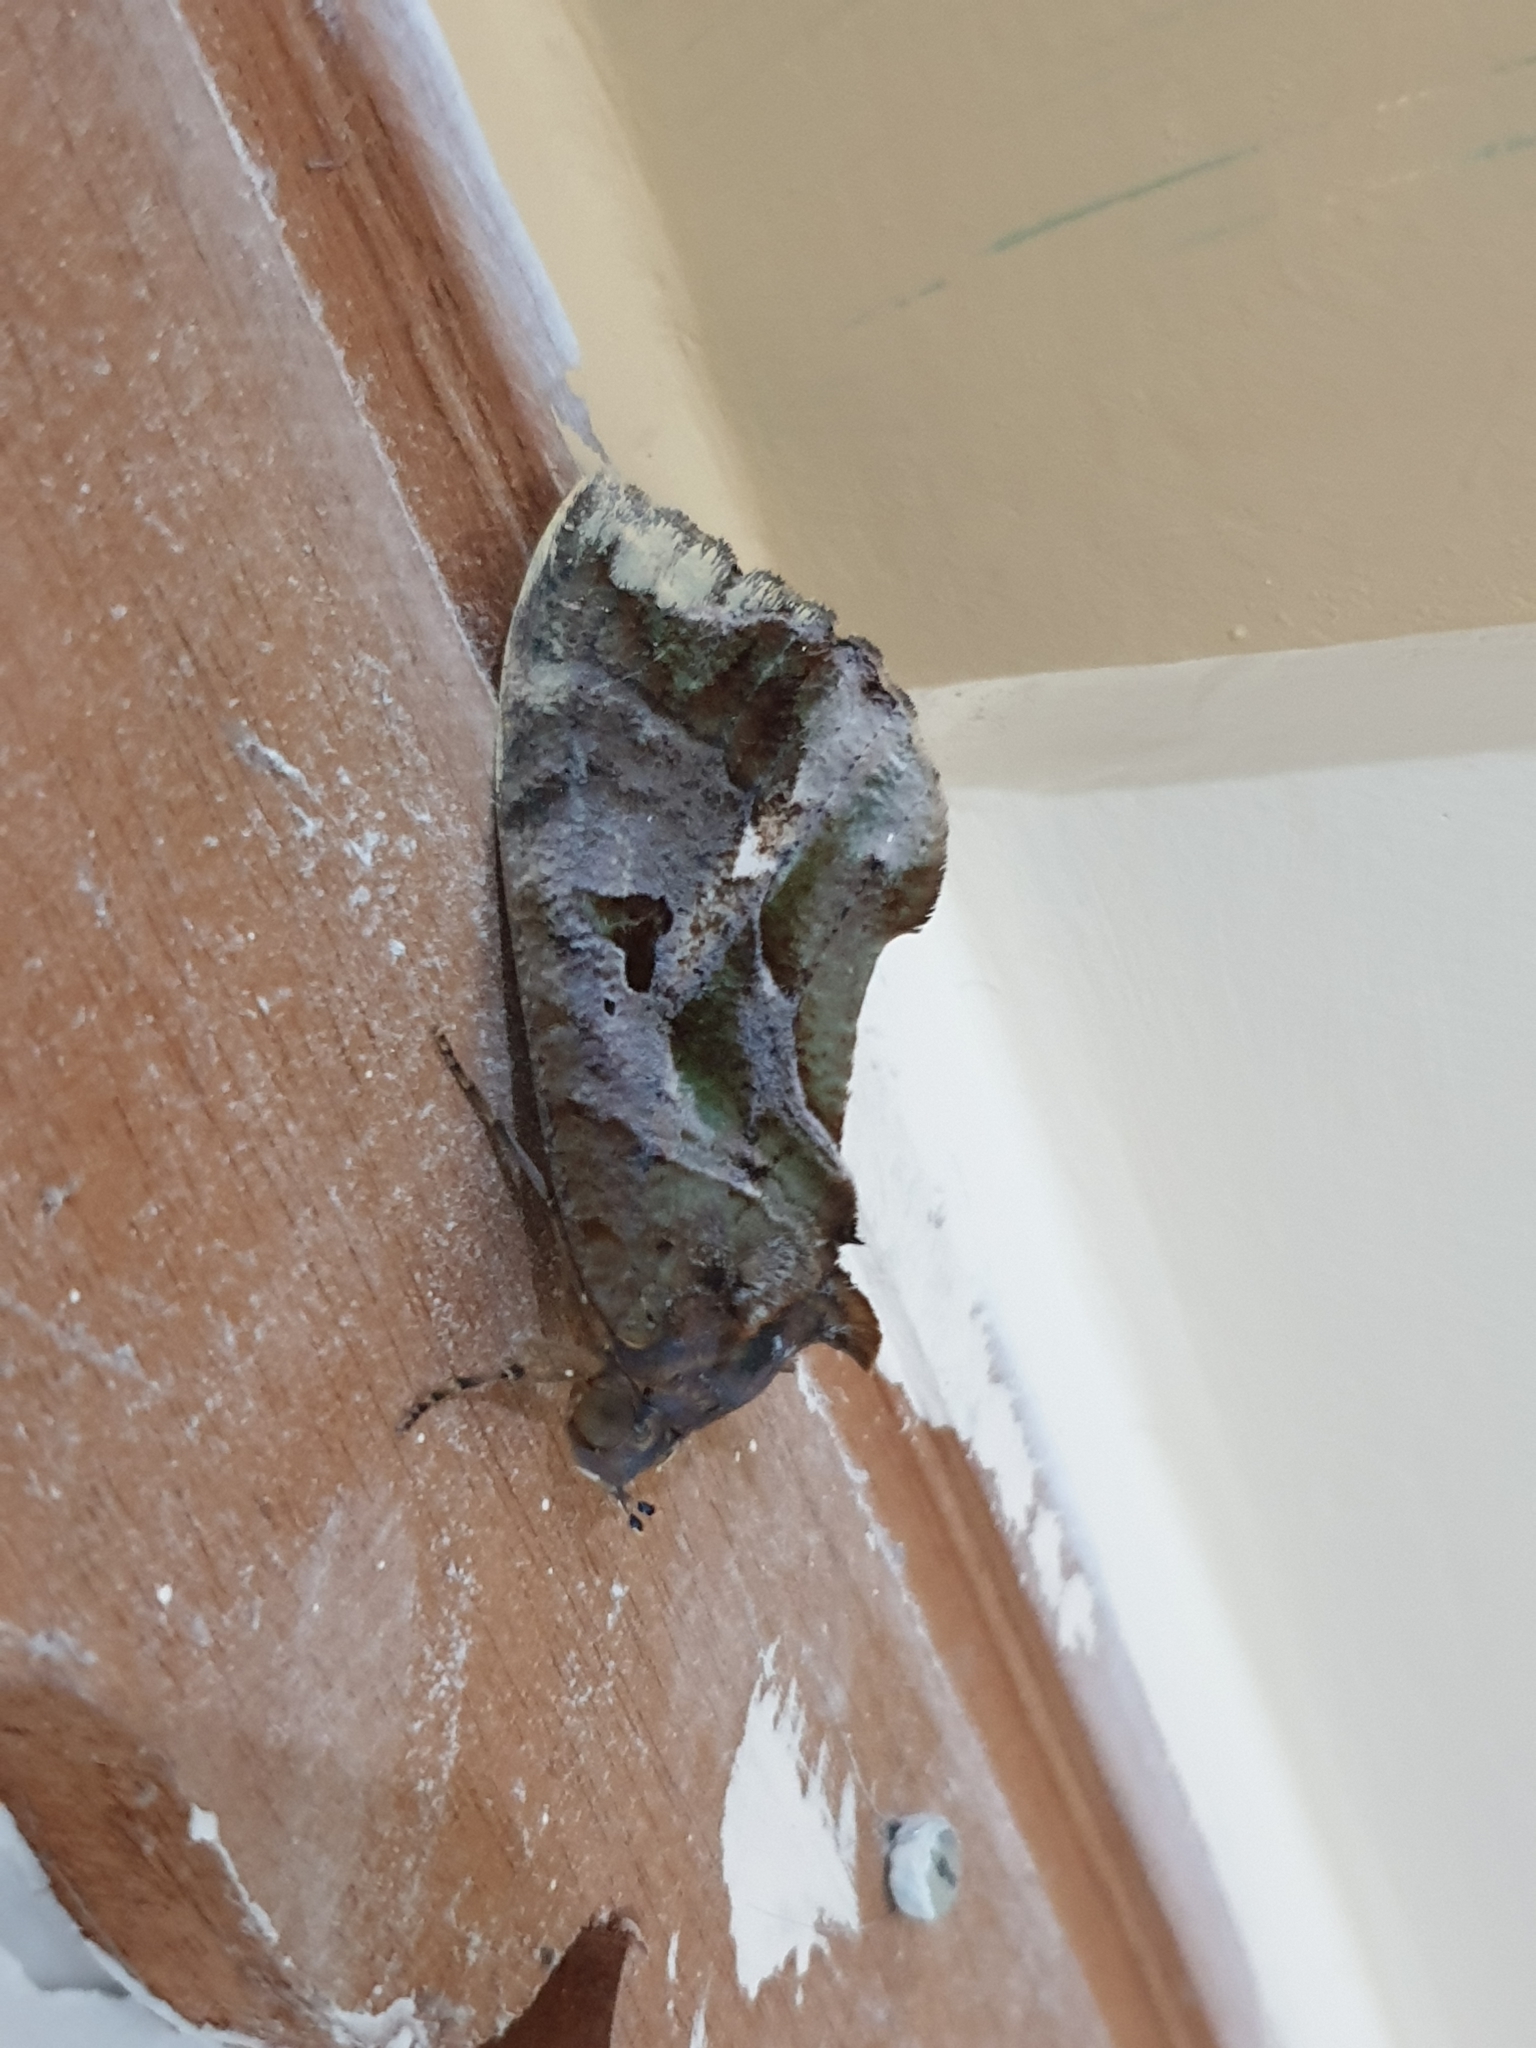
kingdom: Animalia
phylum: Arthropoda
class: Insecta
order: Lepidoptera
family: Erebidae
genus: Eudocima
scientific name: Eudocima phalonia
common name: Wasp
